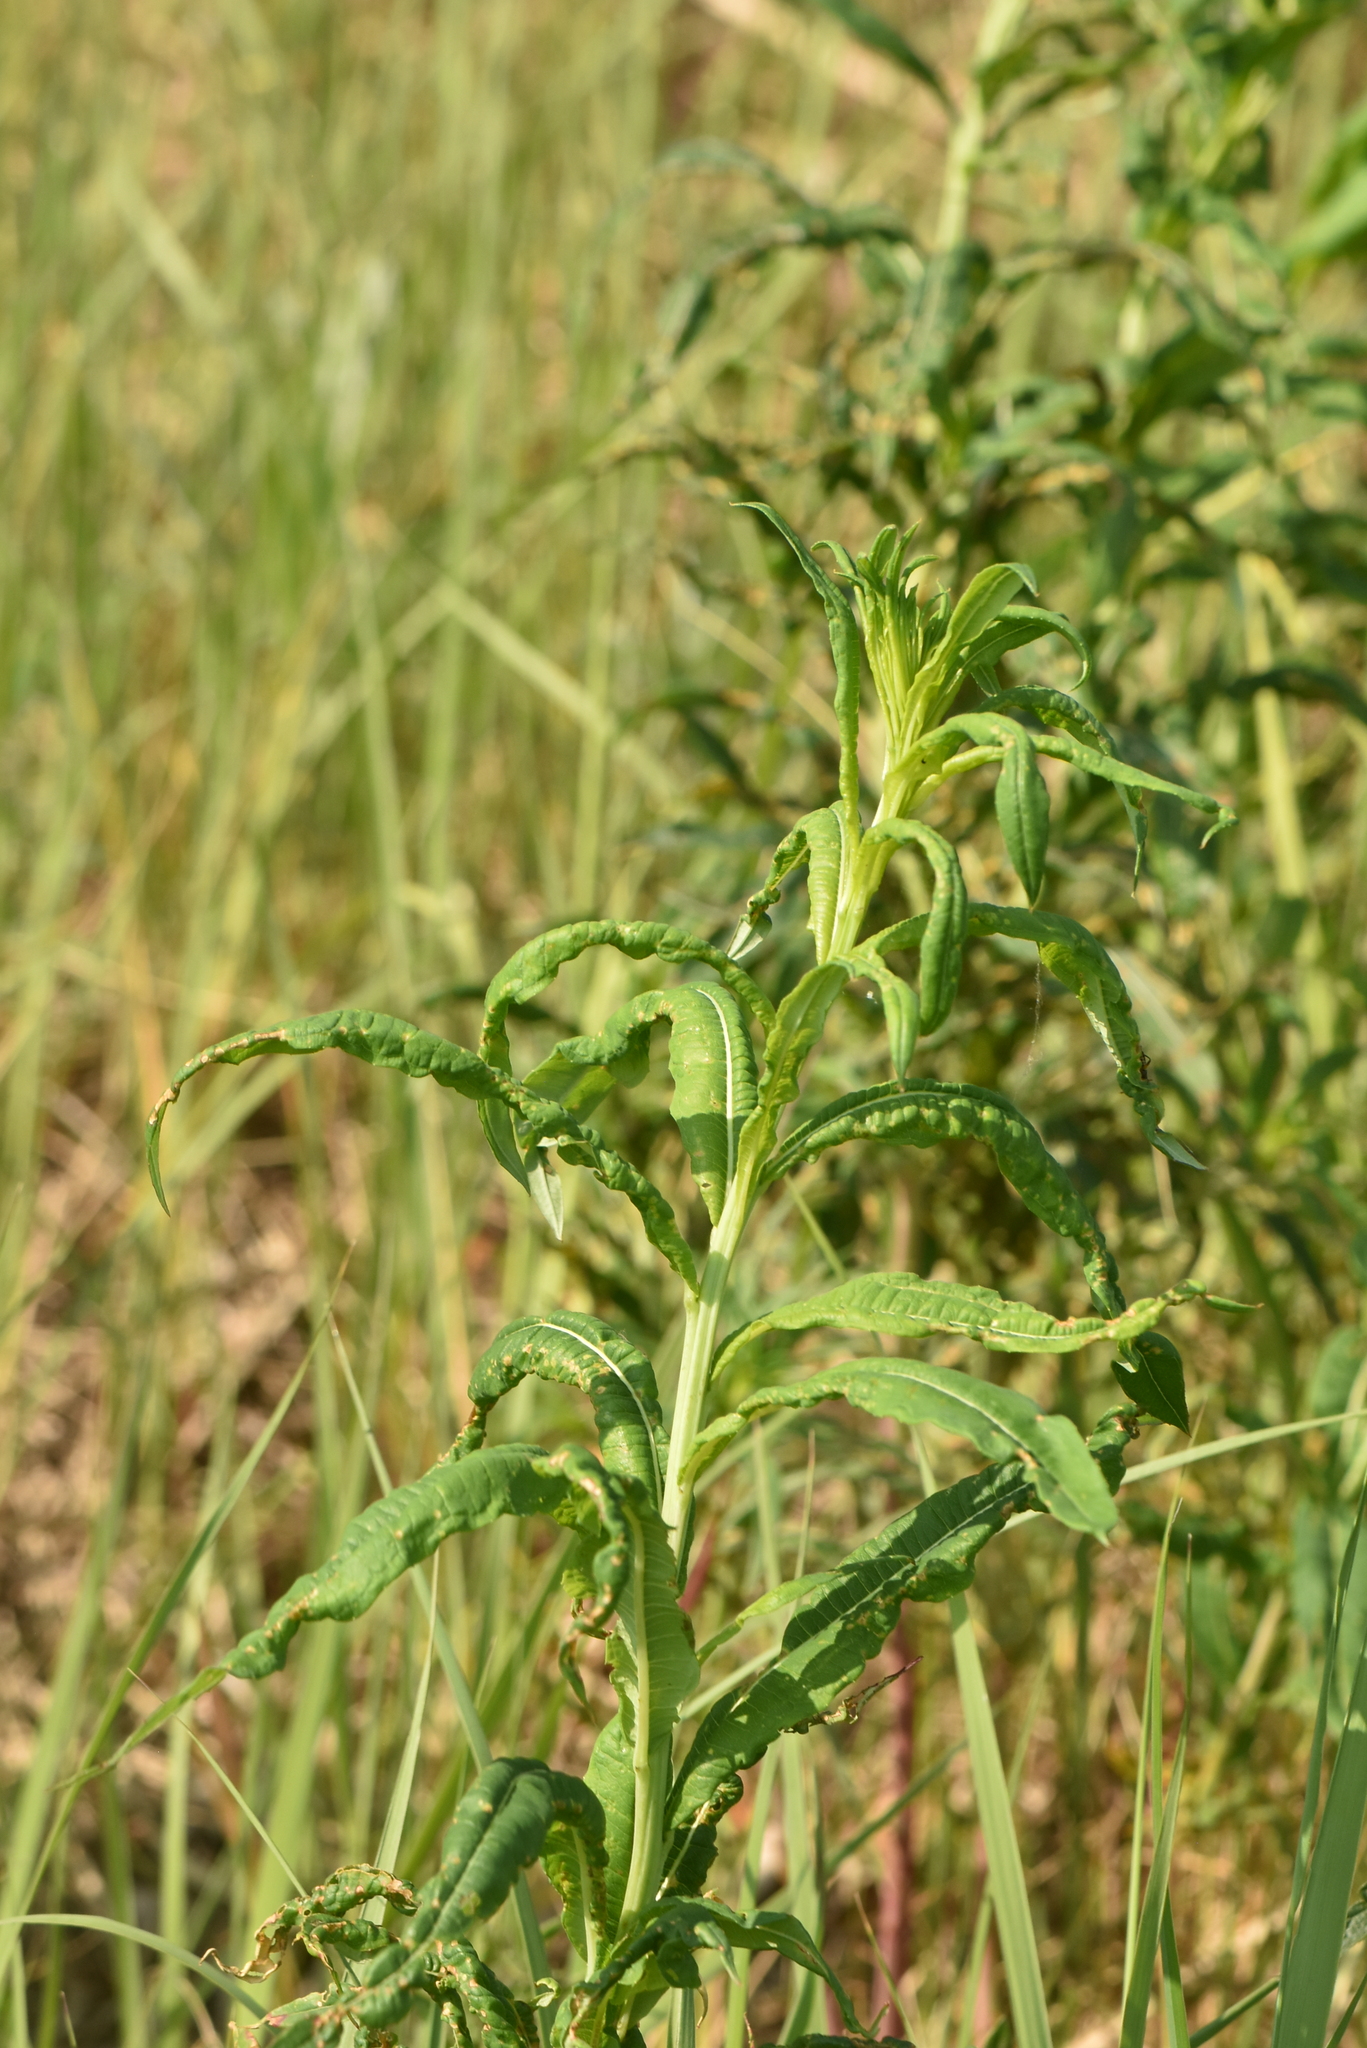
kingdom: Plantae
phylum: Tracheophyta
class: Magnoliopsida
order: Myrtales
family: Onagraceae
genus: Chamaenerion
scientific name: Chamaenerion angustifolium
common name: Fireweed
